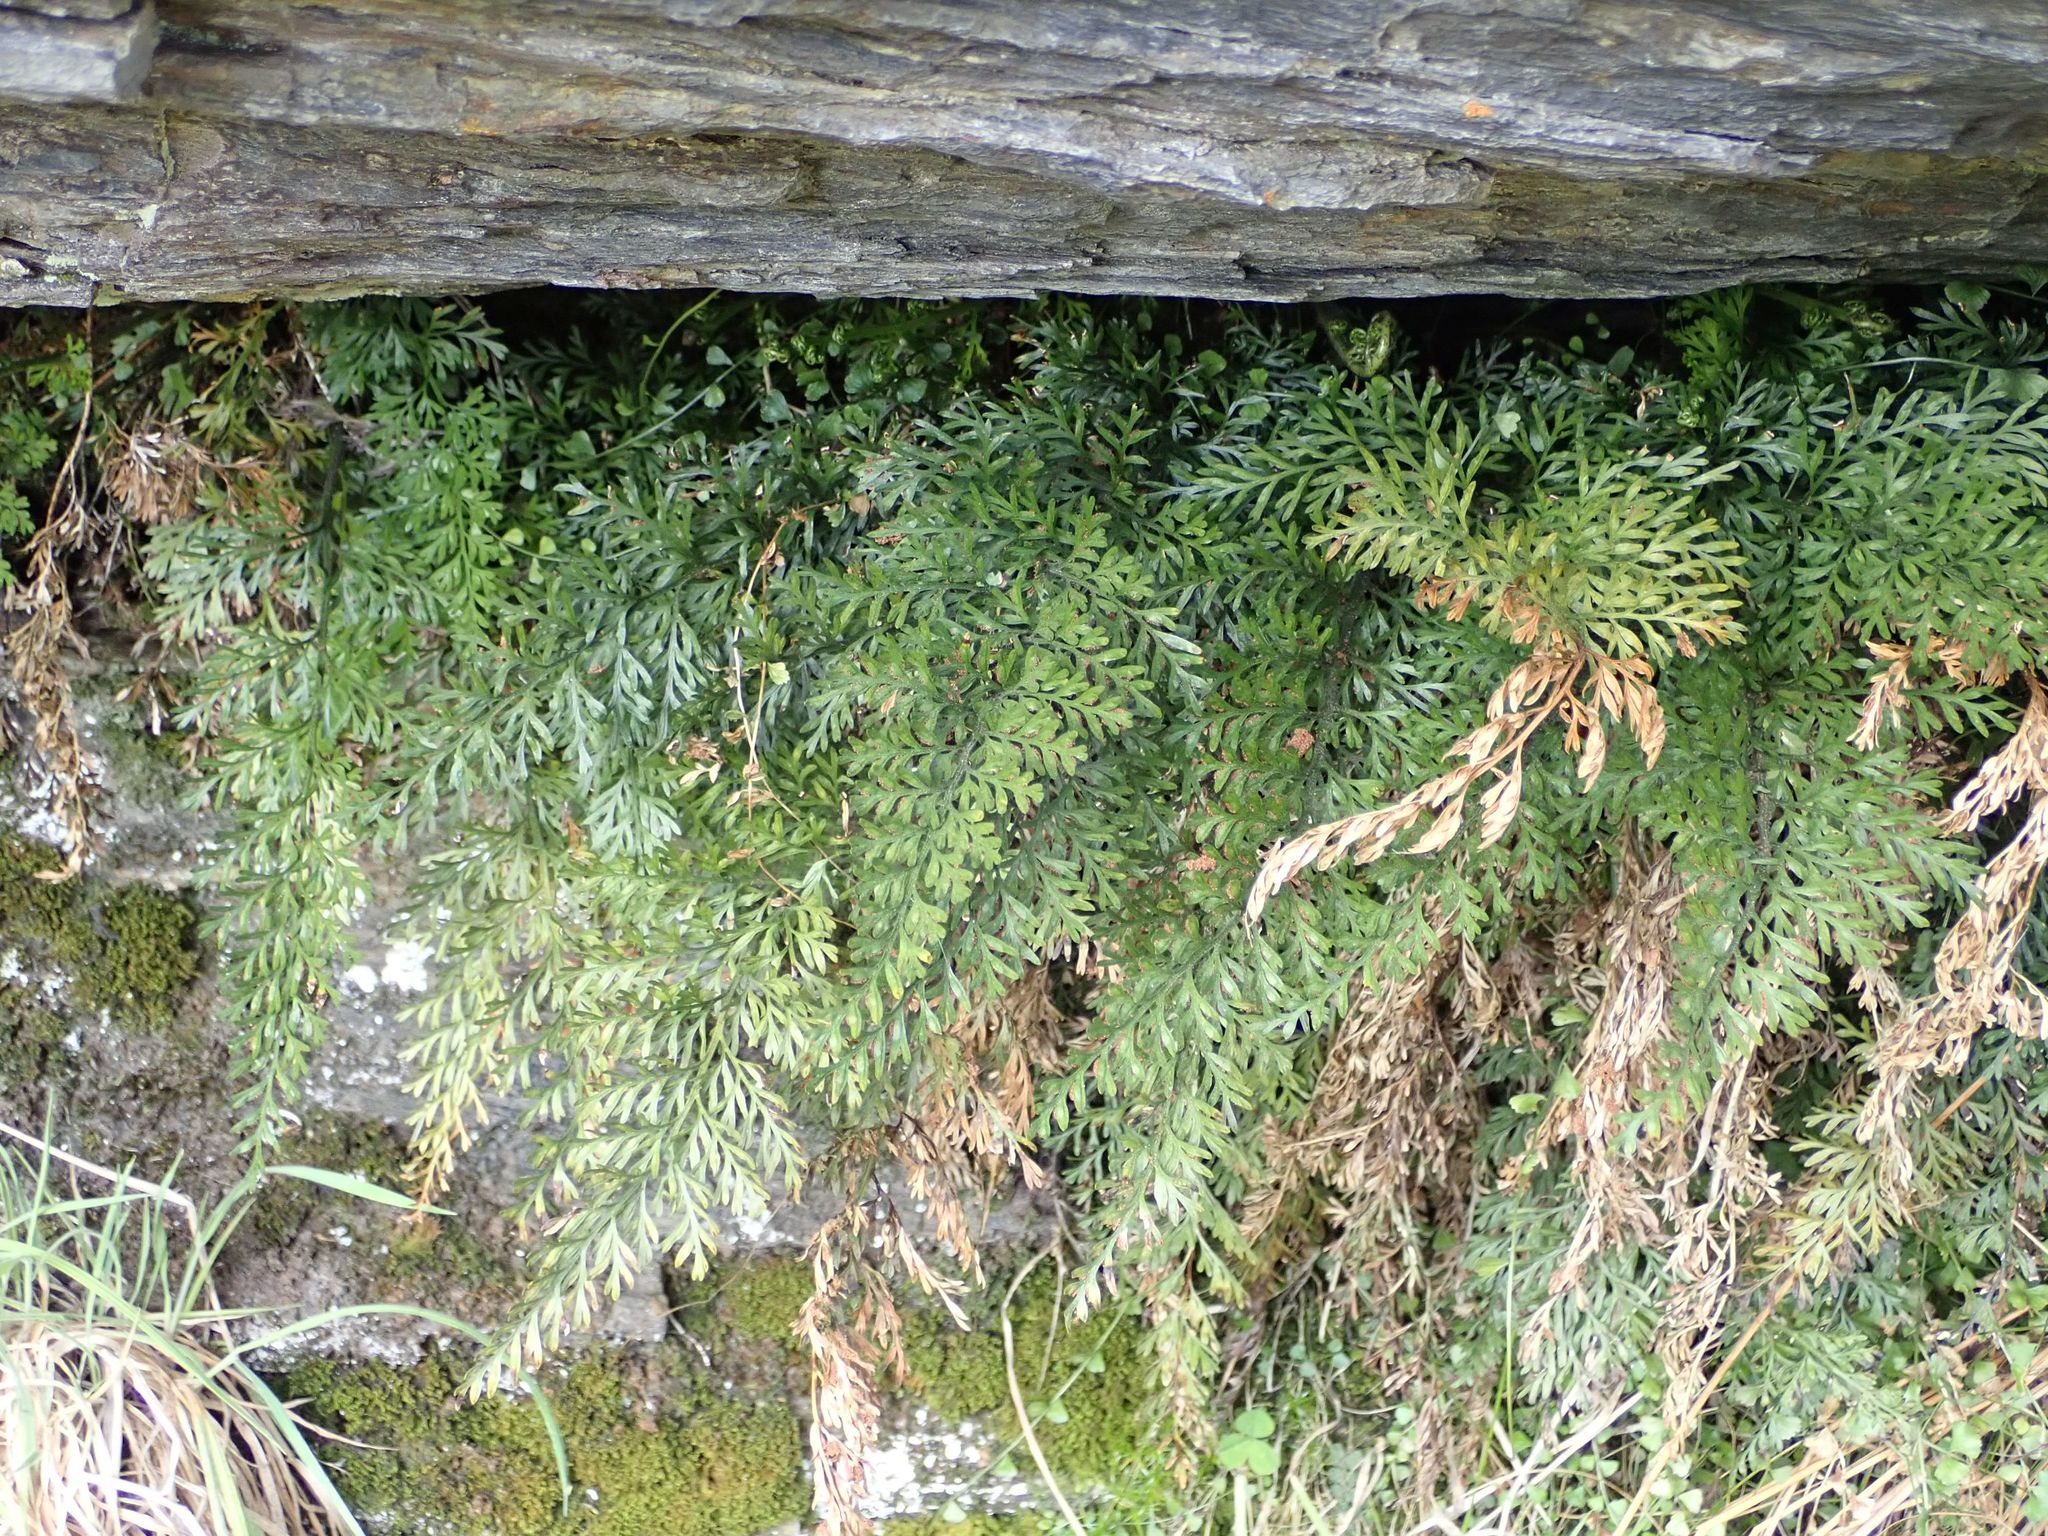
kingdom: Plantae
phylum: Tracheophyta
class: Polypodiopsida
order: Polypodiales
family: Aspleniaceae
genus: Asplenium
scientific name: Asplenium richardii
